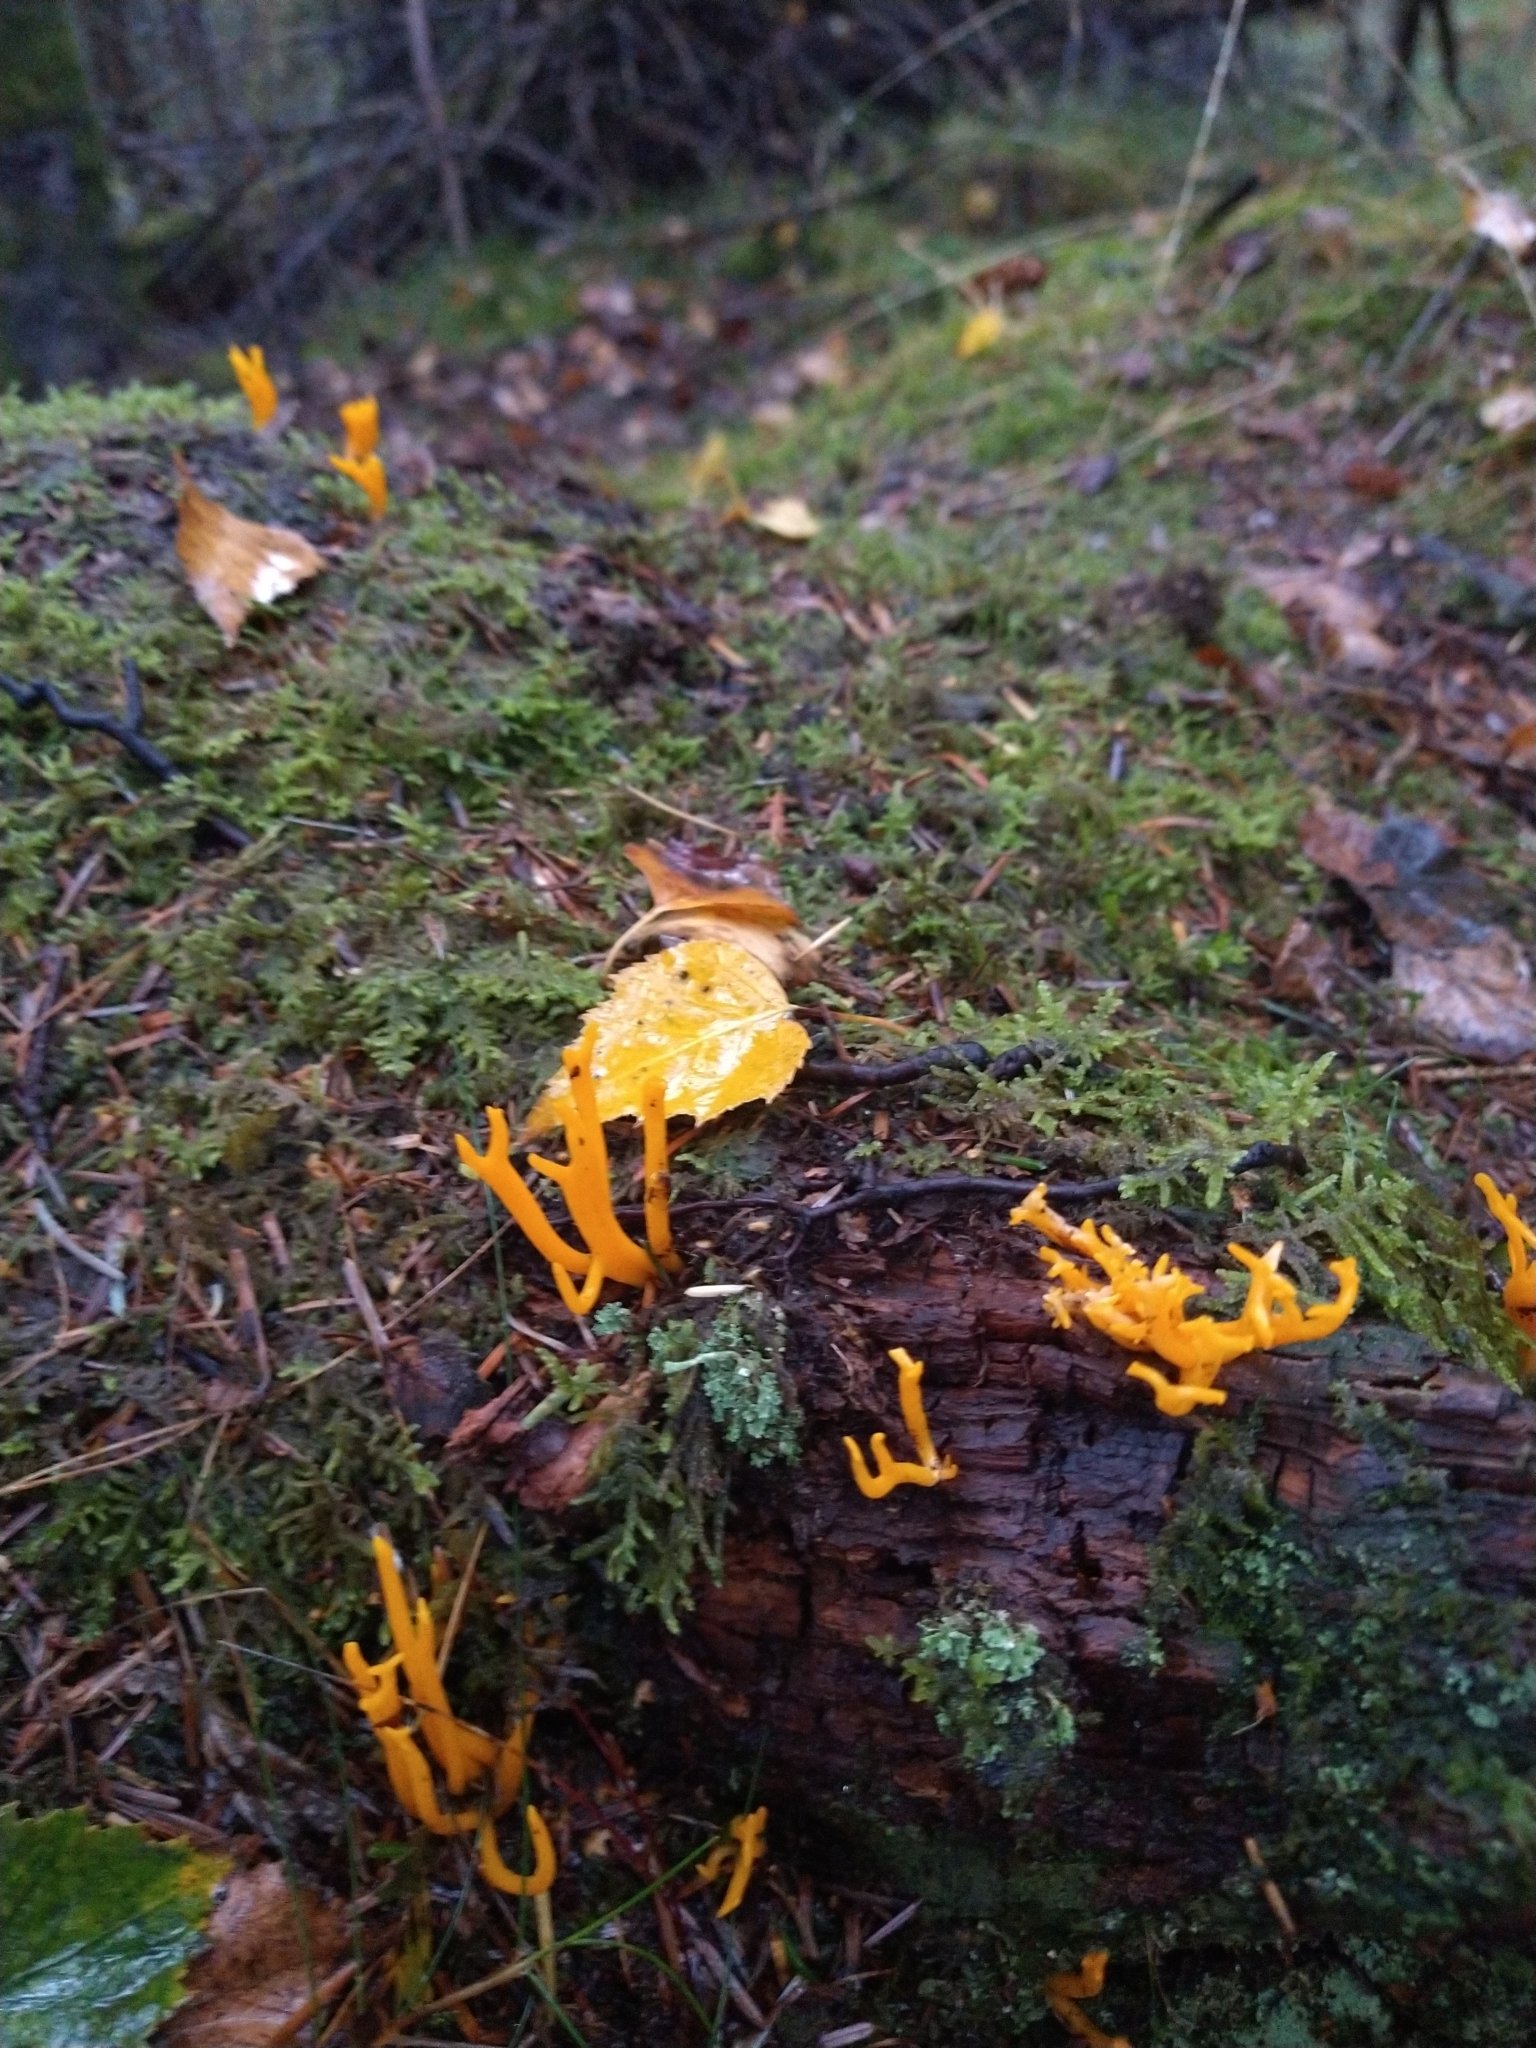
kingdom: Fungi
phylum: Basidiomycota
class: Dacrymycetes
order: Dacrymycetales
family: Dacrymycetaceae
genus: Calocera
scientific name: Calocera viscosa
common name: Yellow stagshorn
